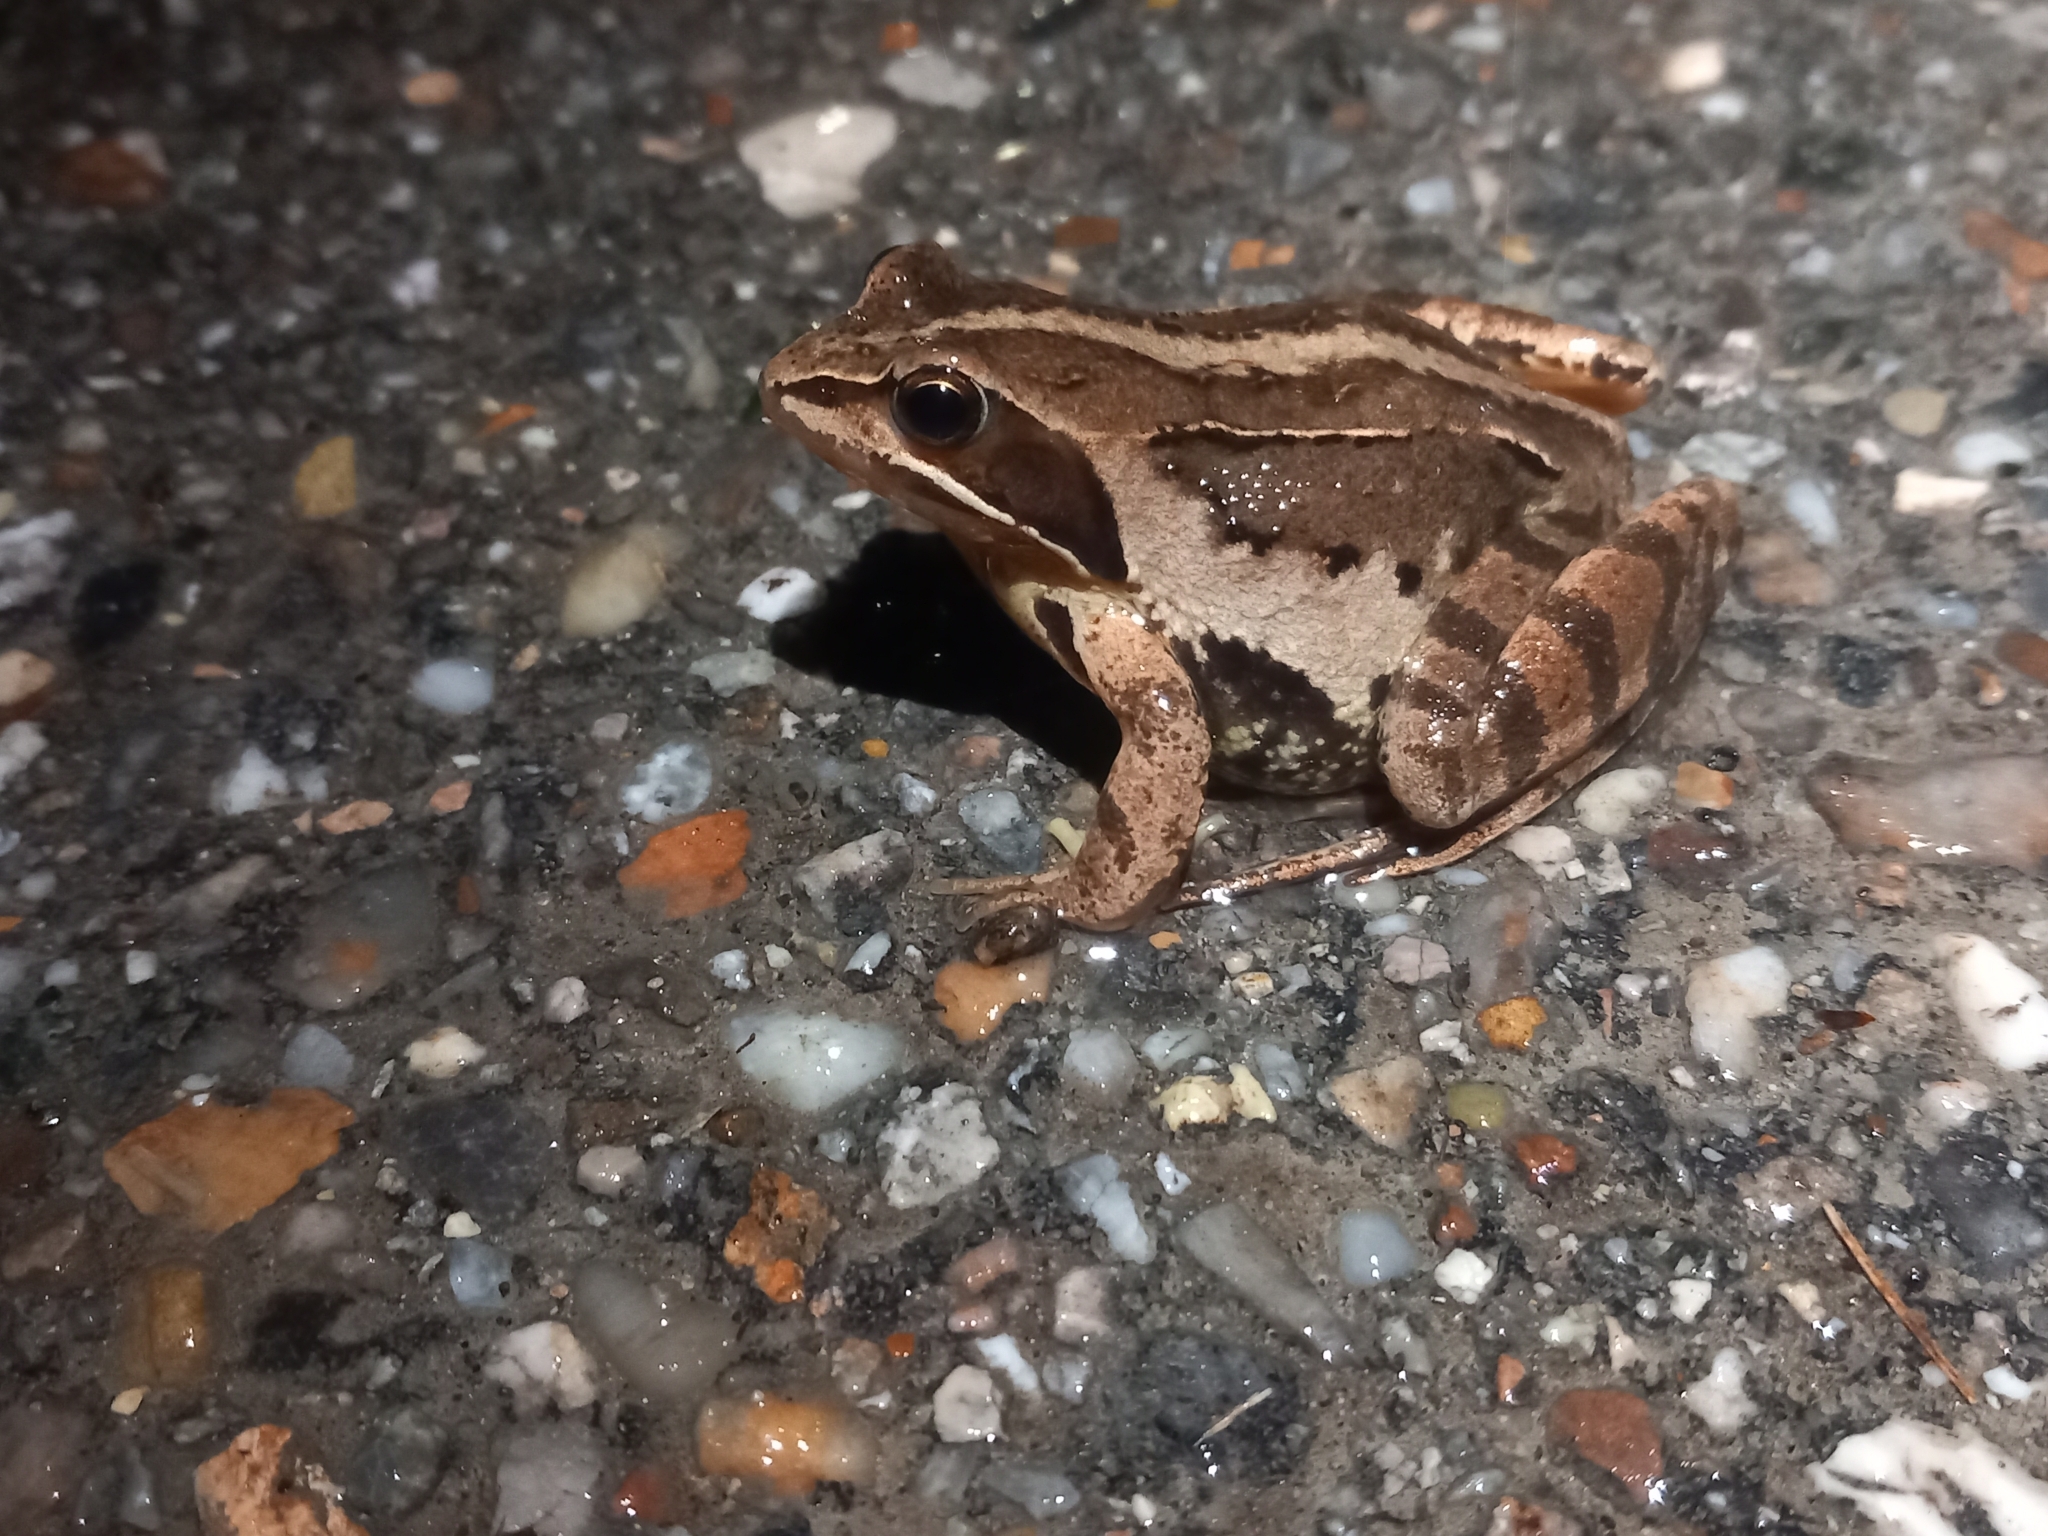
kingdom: Animalia
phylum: Chordata
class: Amphibia
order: Anura
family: Ranidae
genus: Rana
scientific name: Rana arvalis
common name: Moor frog
